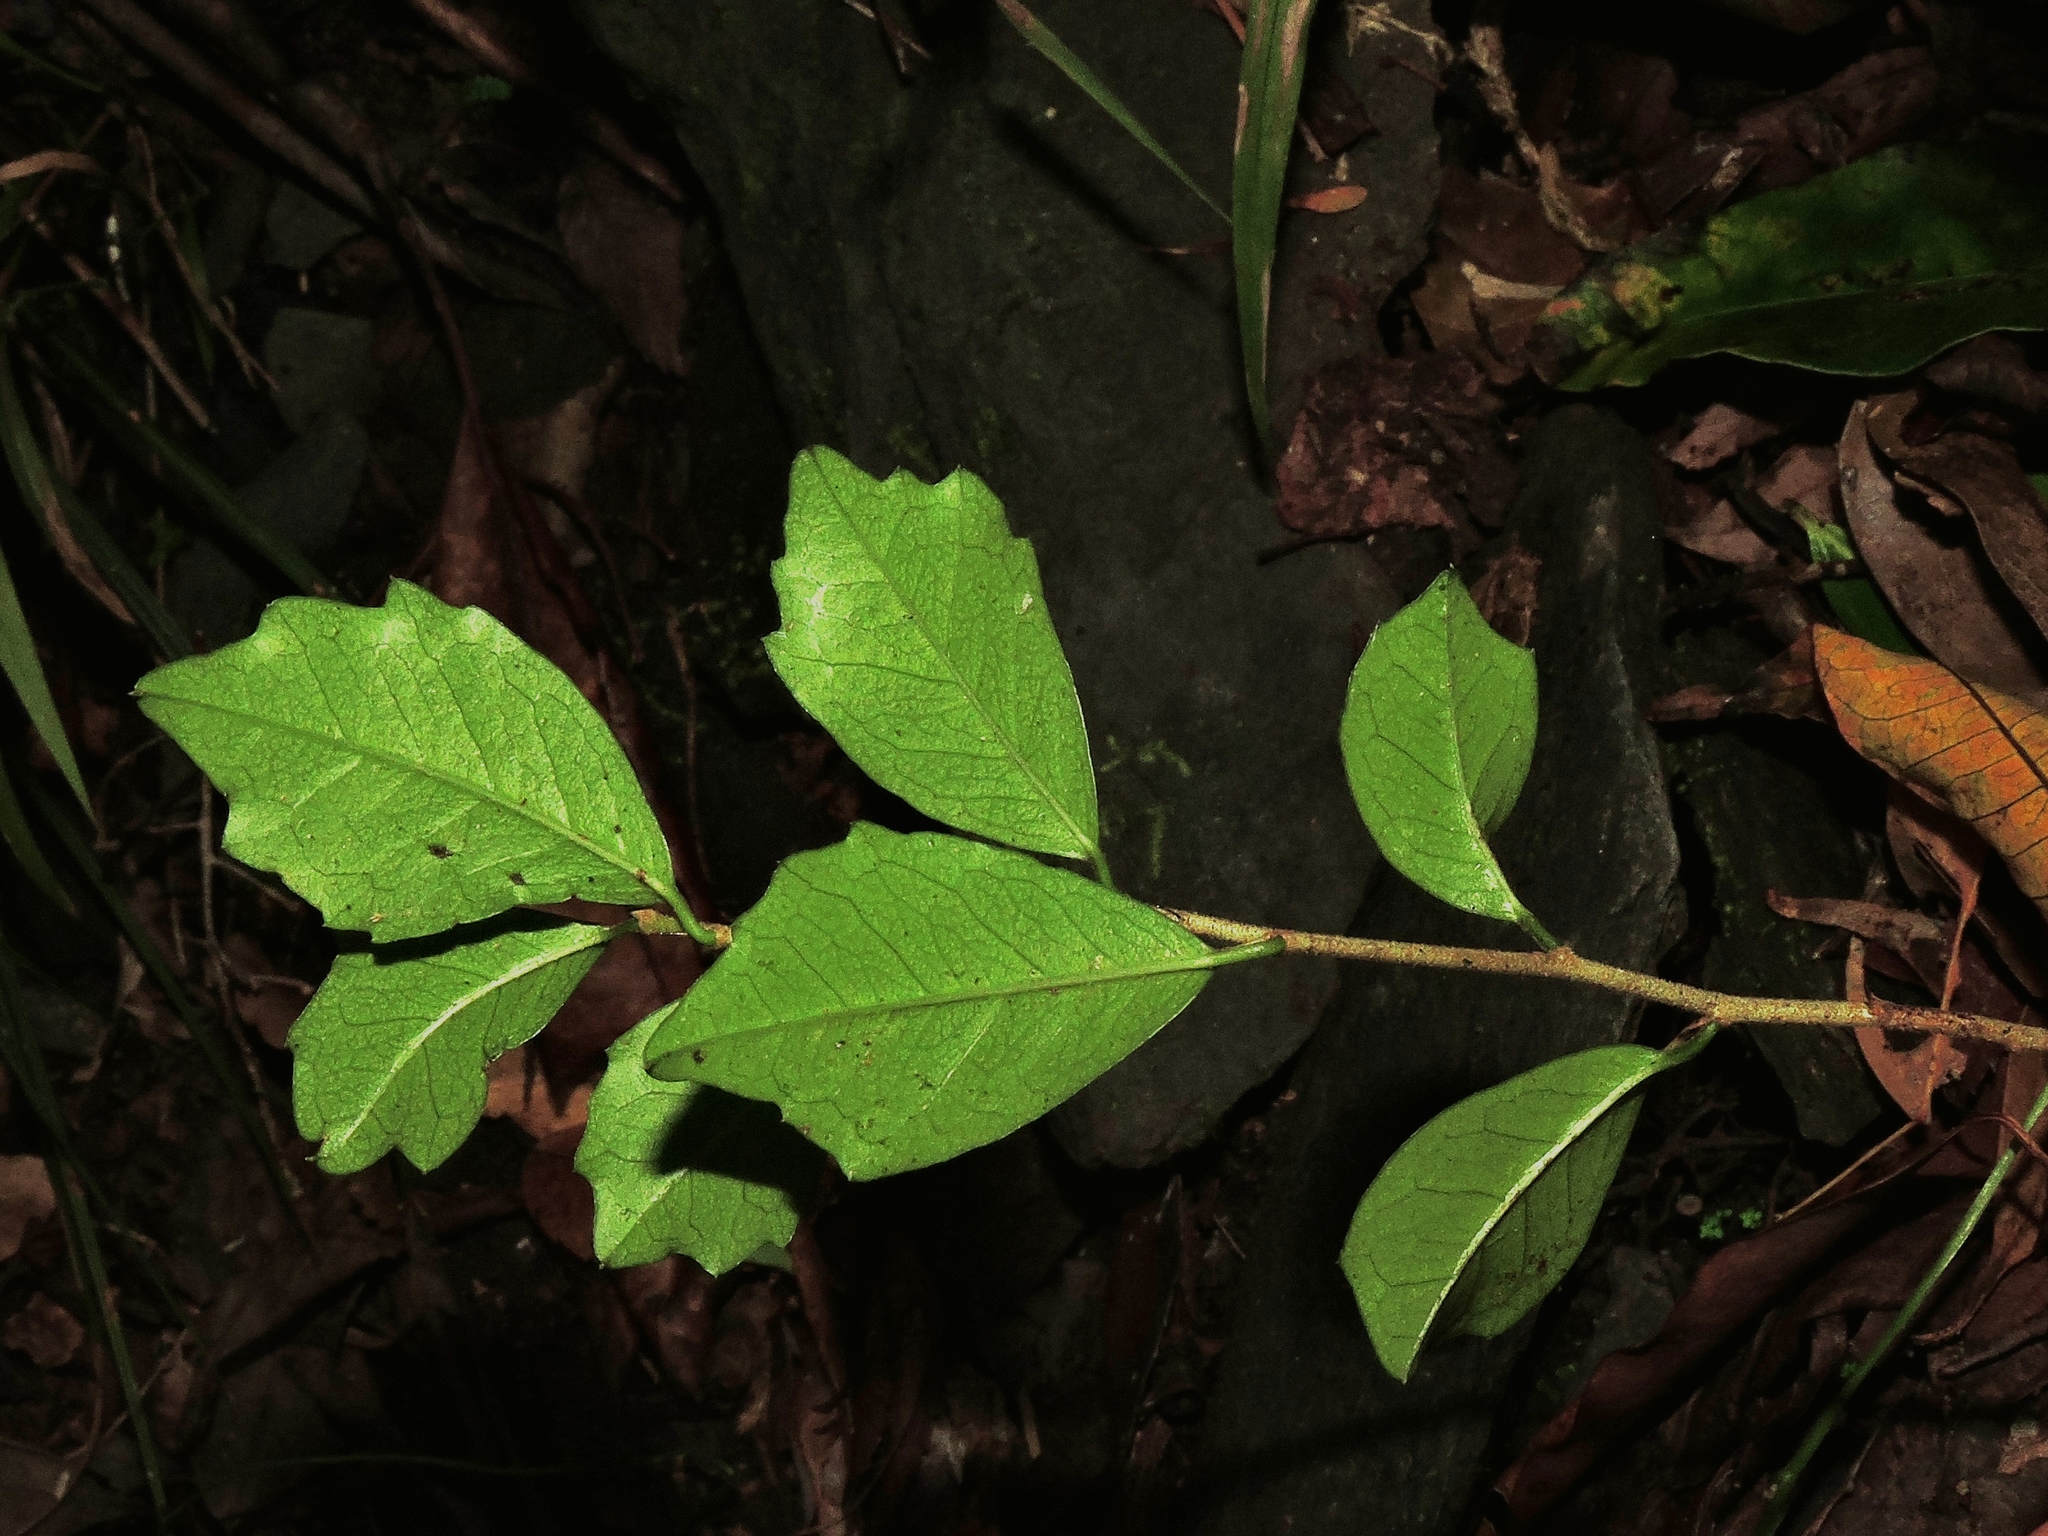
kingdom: Plantae
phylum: Tracheophyta
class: Magnoliopsida
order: Rosales
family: Moraceae
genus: Maclura
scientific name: Maclura cochinchinensis
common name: Cockspurthorn
